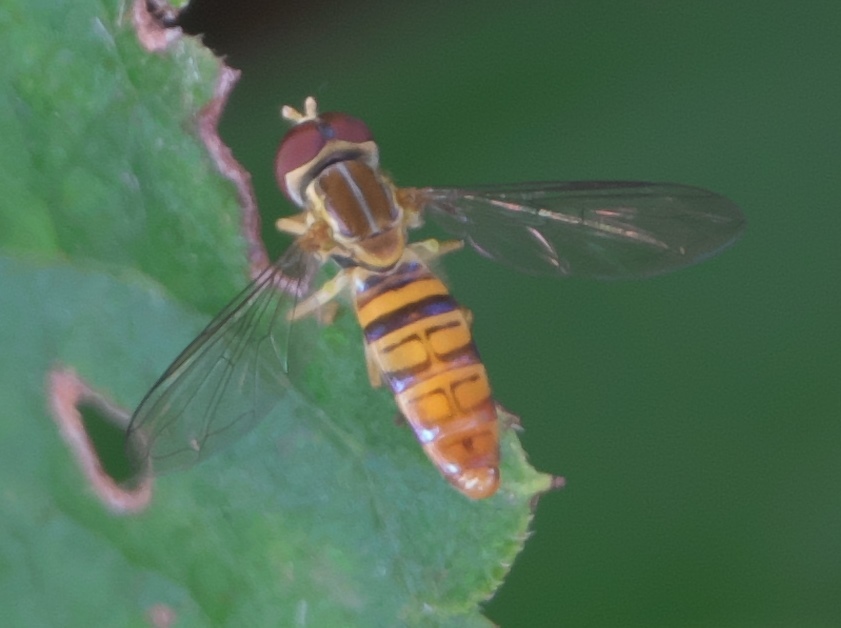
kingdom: Animalia
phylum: Arthropoda
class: Insecta
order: Diptera
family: Syrphidae
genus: Toxomerus
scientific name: Toxomerus politus
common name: Maize calligrapher
